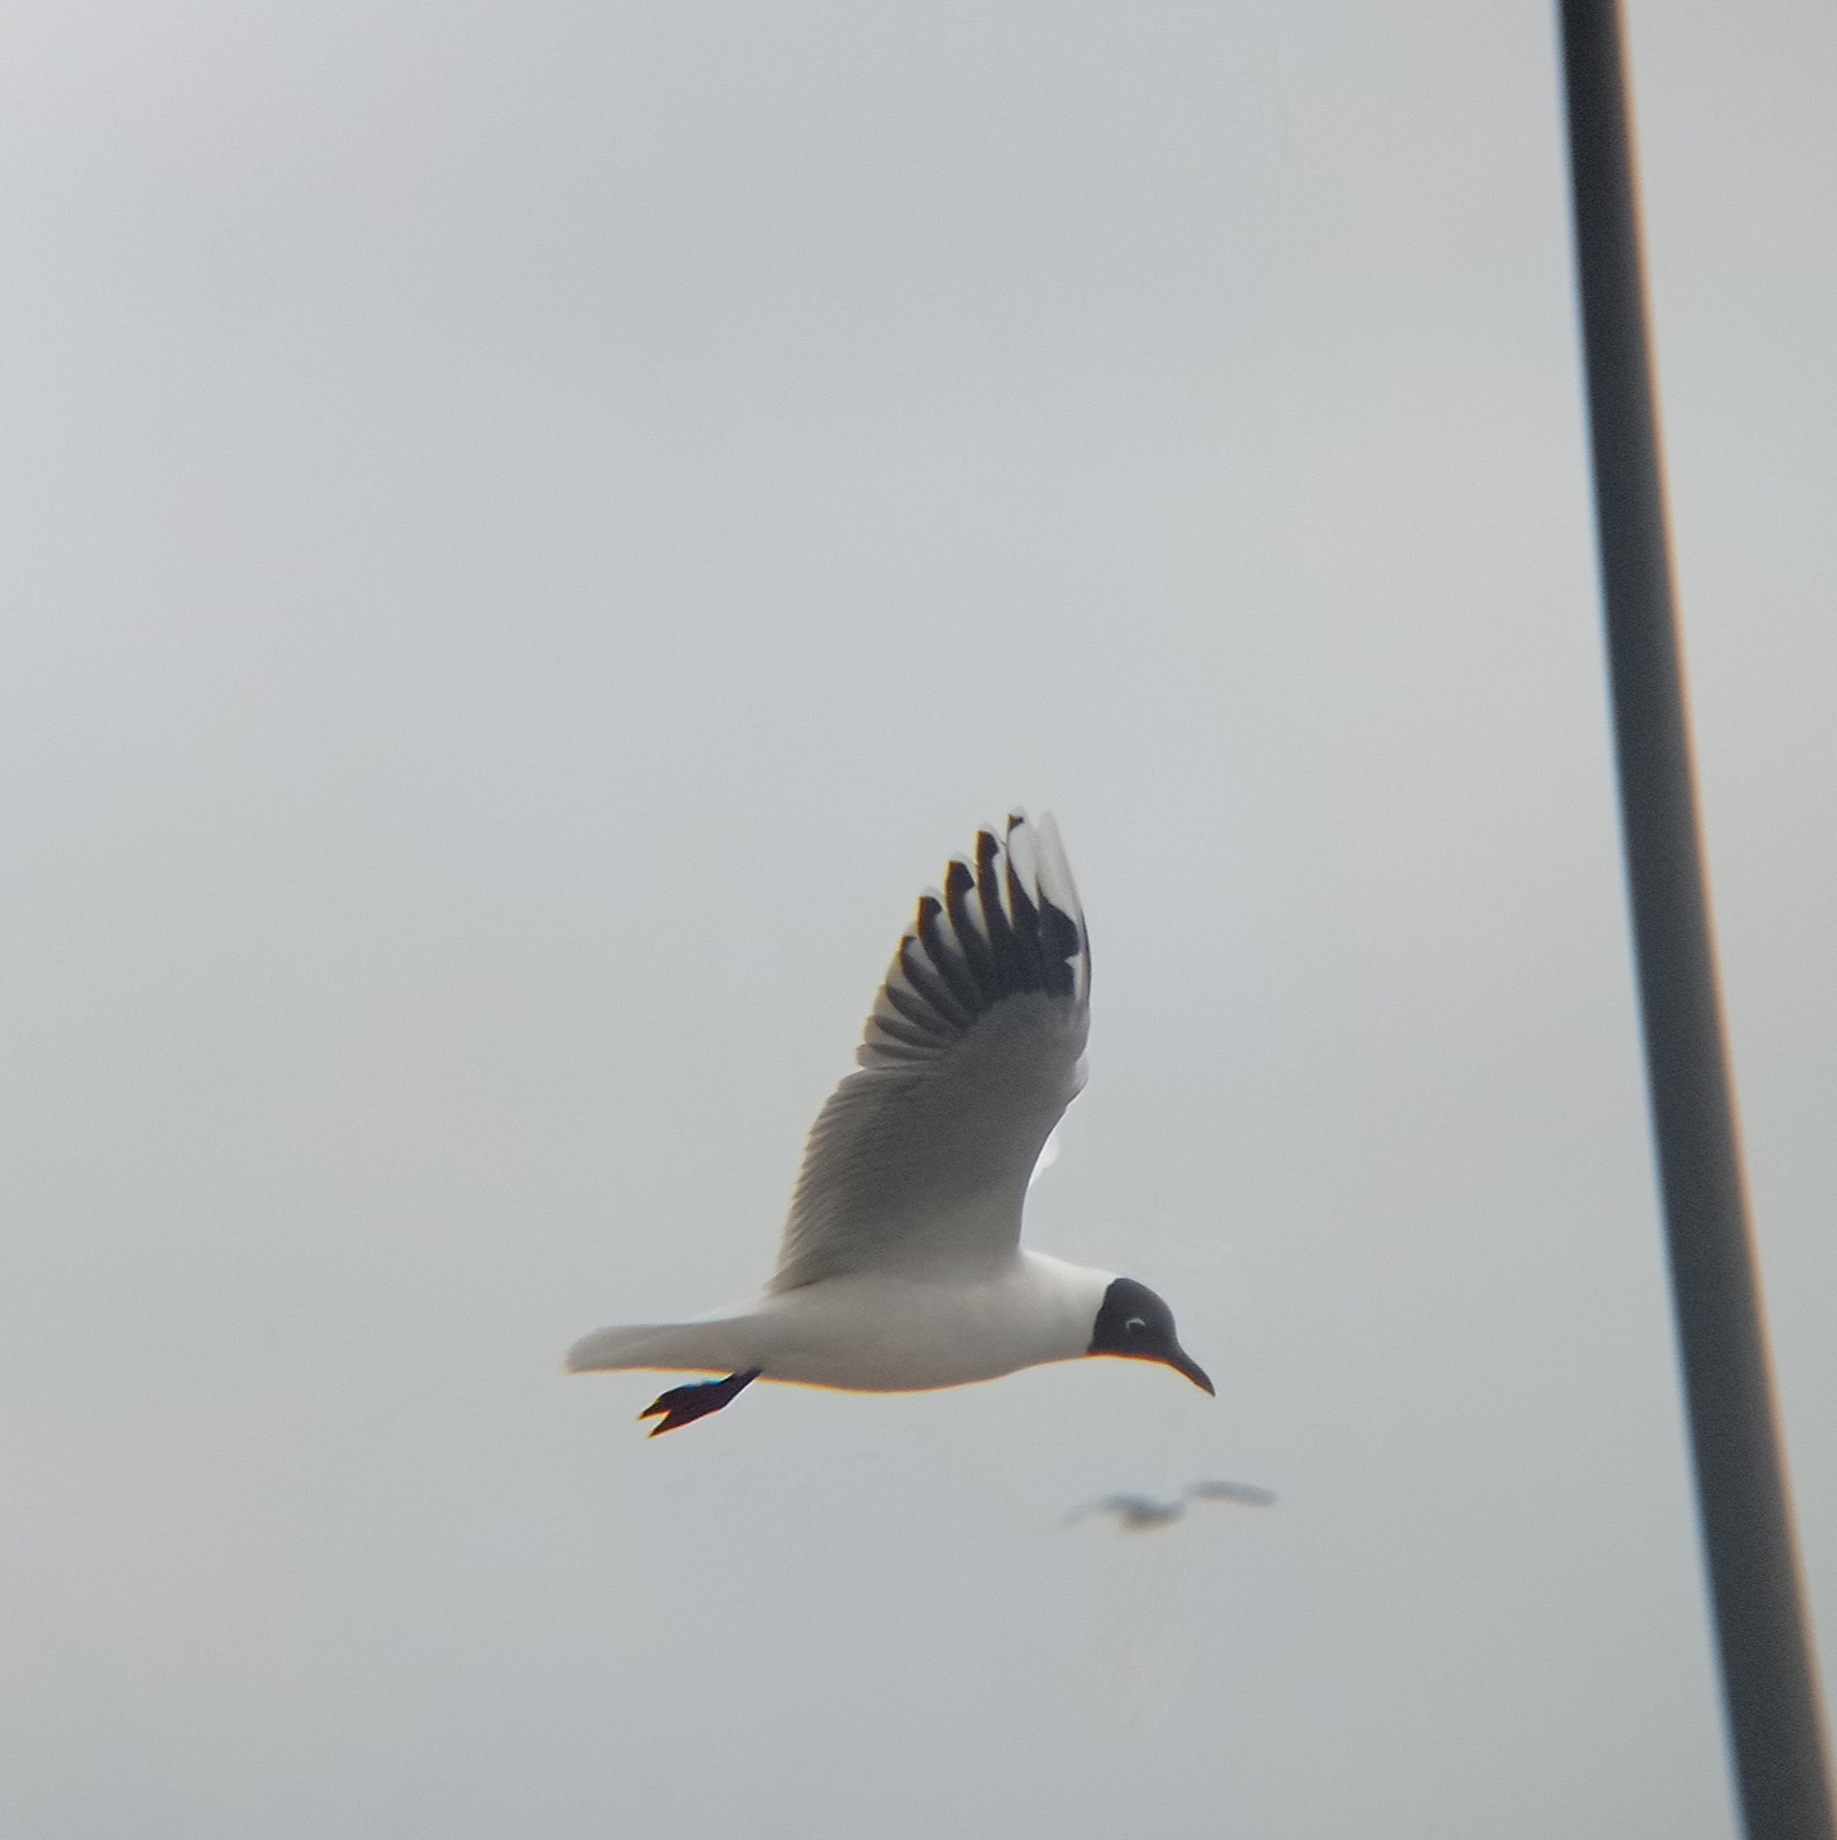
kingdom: Animalia
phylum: Chordata
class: Aves
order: Charadriiformes
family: Laridae
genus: Chroicocephalus
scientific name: Chroicocephalus maculipennis
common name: Brown-hooded gull
